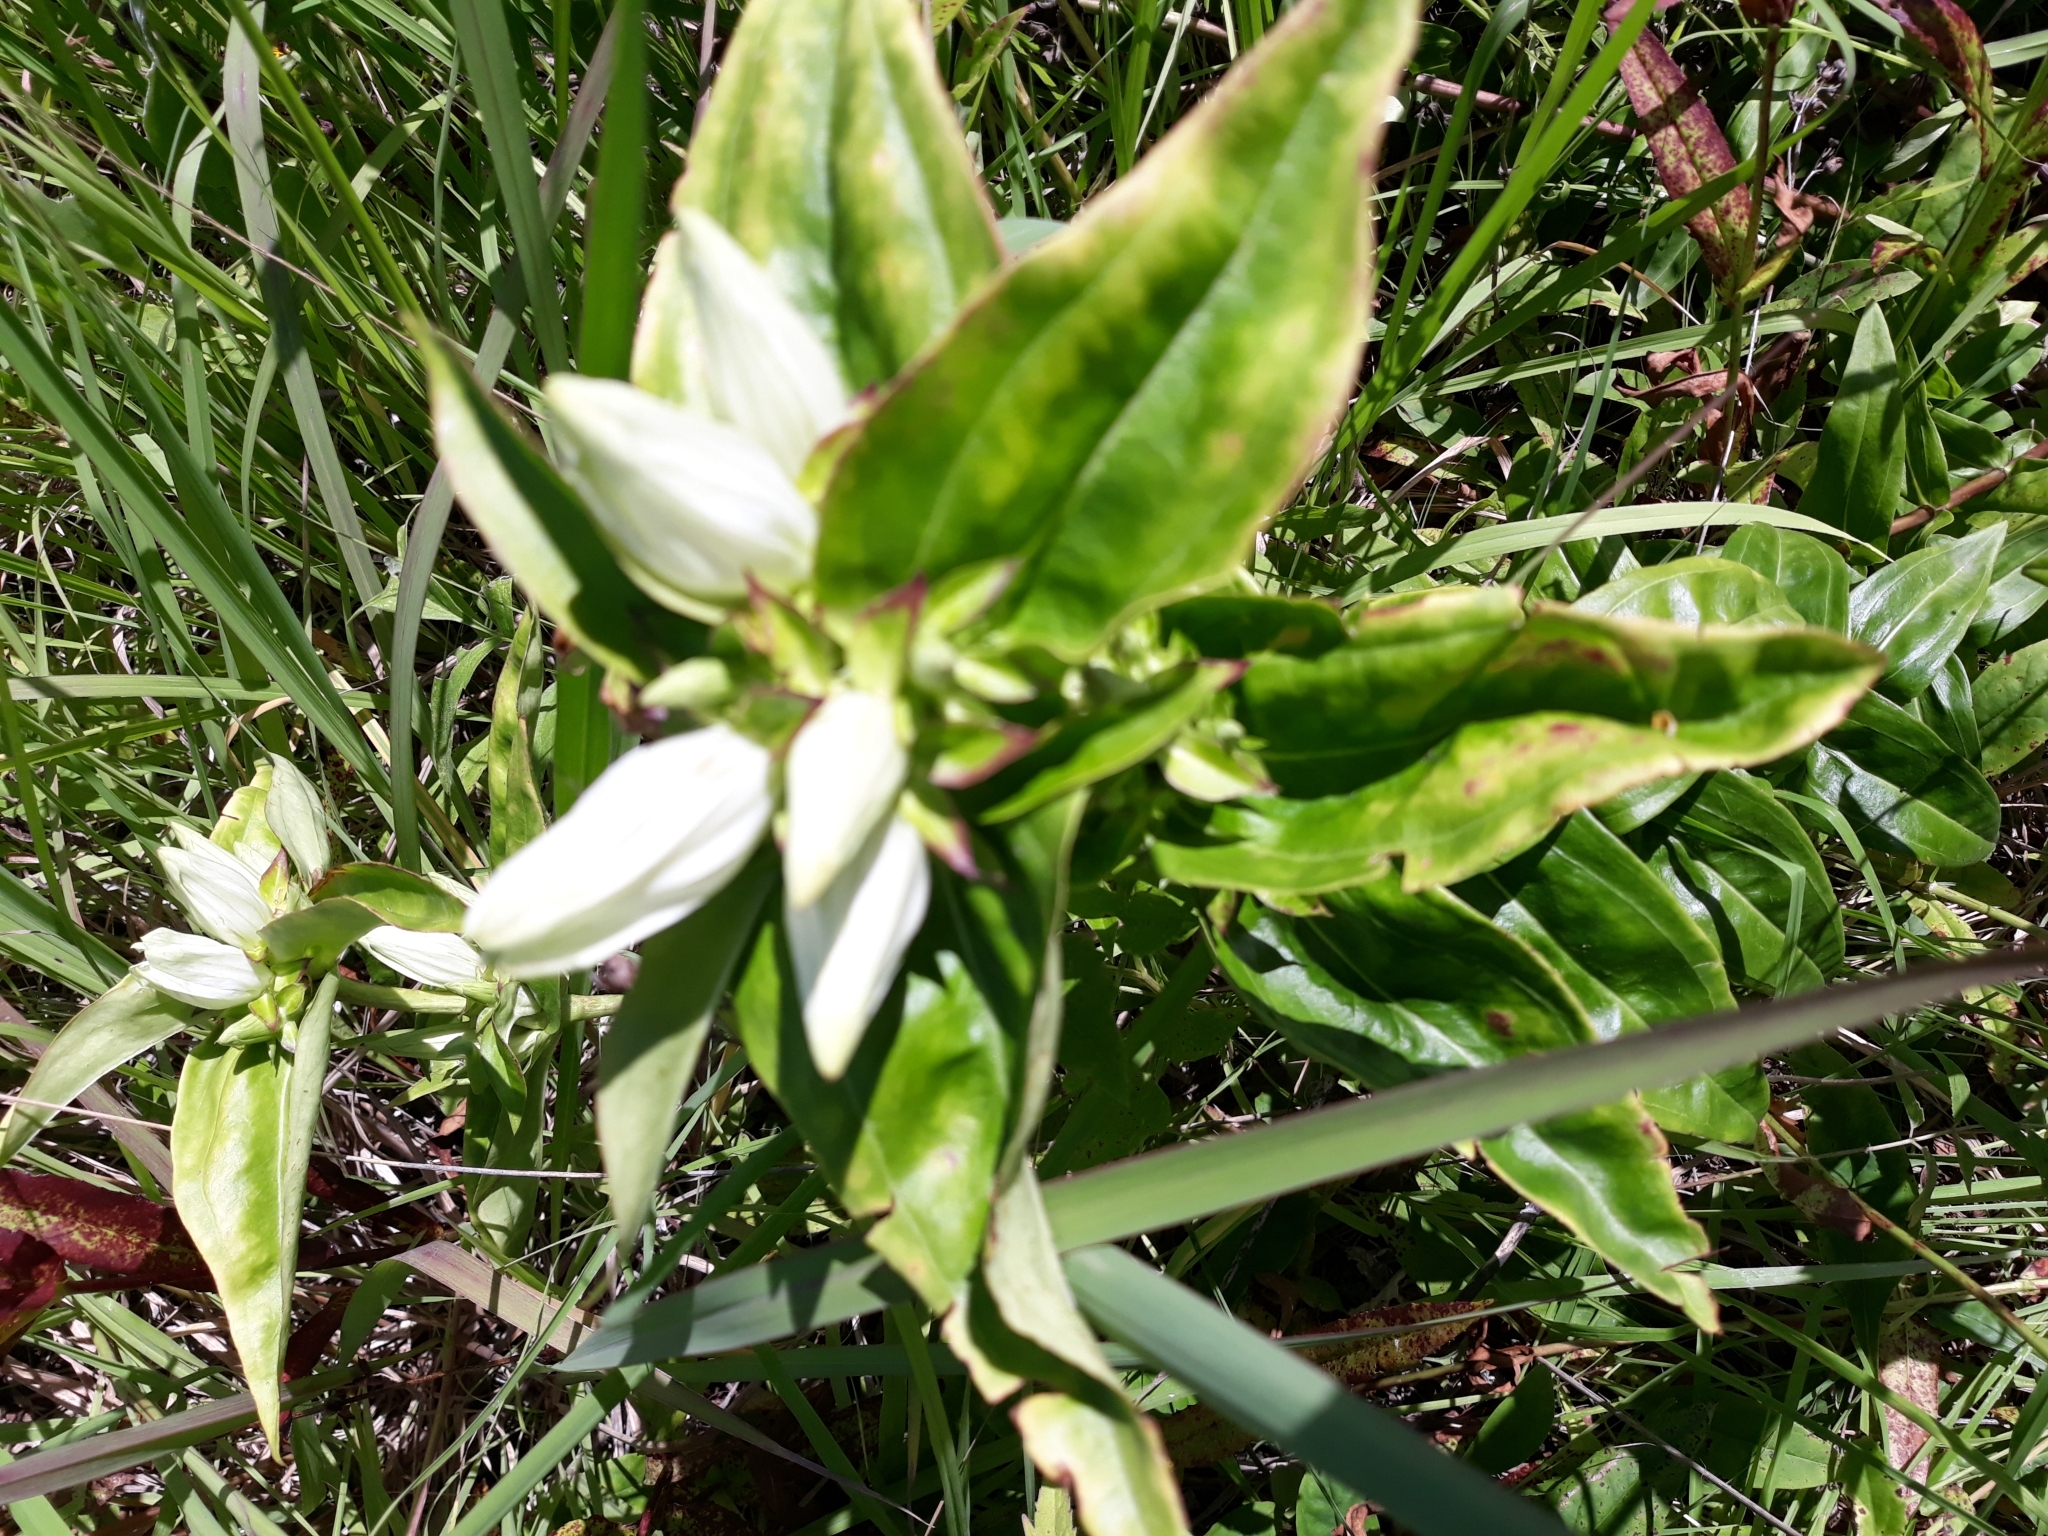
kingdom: Plantae
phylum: Tracheophyta
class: Magnoliopsida
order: Gentianales
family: Gentianaceae
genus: Gentiana
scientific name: Gentiana alba
